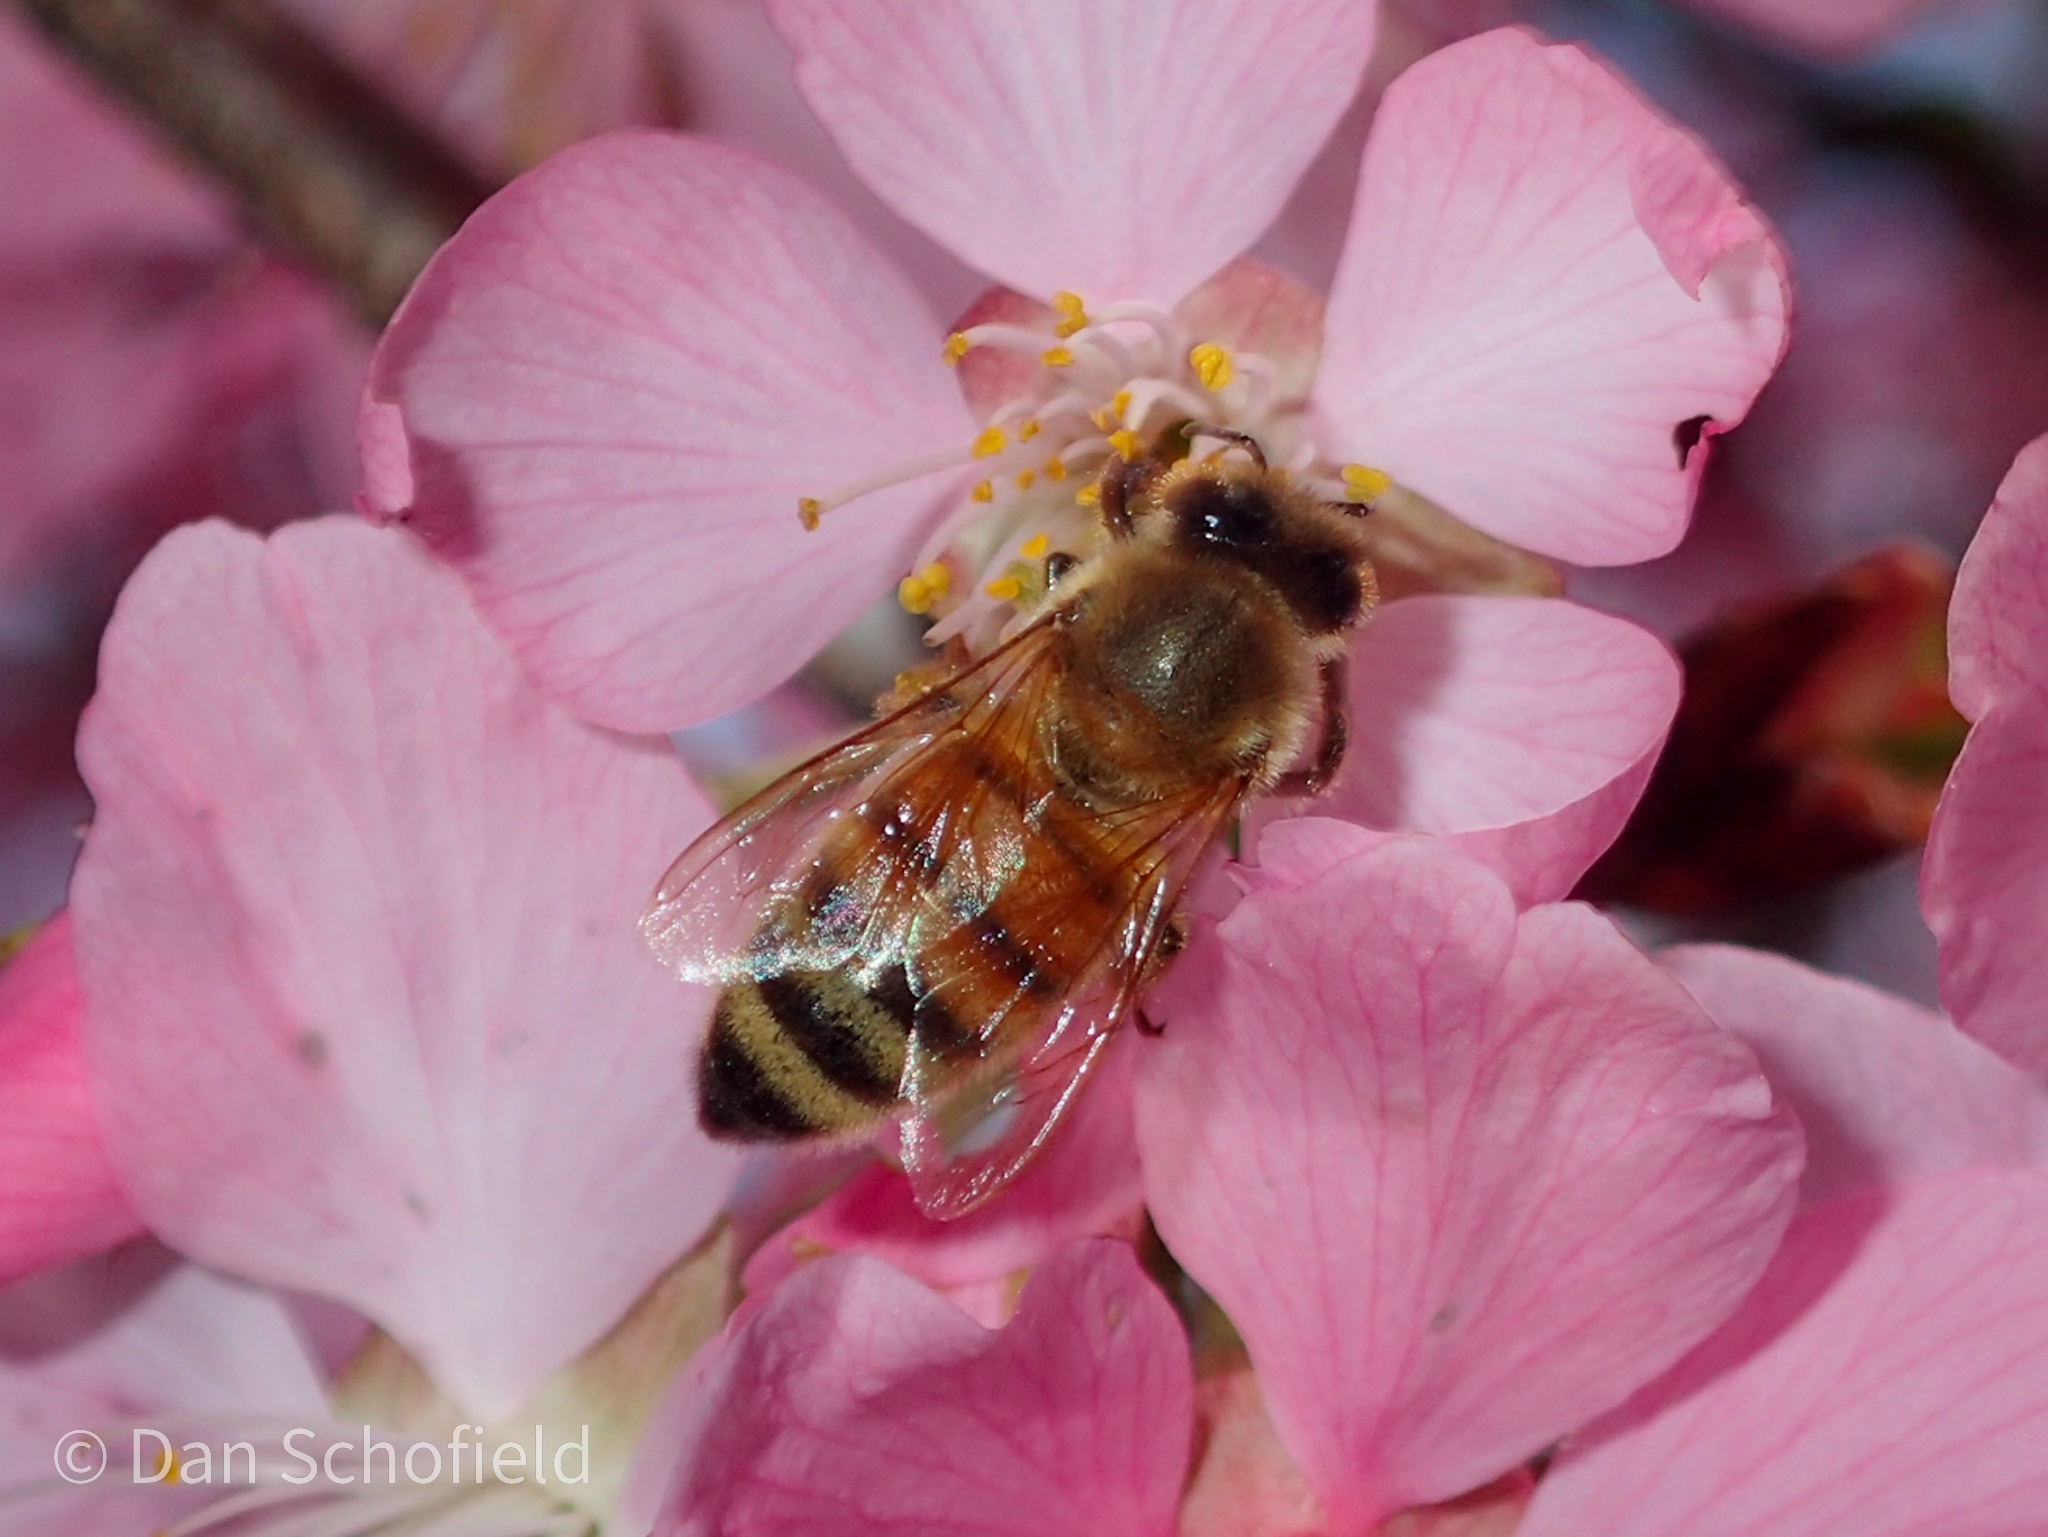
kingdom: Animalia
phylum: Arthropoda
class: Insecta
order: Hymenoptera
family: Apidae
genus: Apis
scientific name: Apis mellifera
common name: Honey bee
